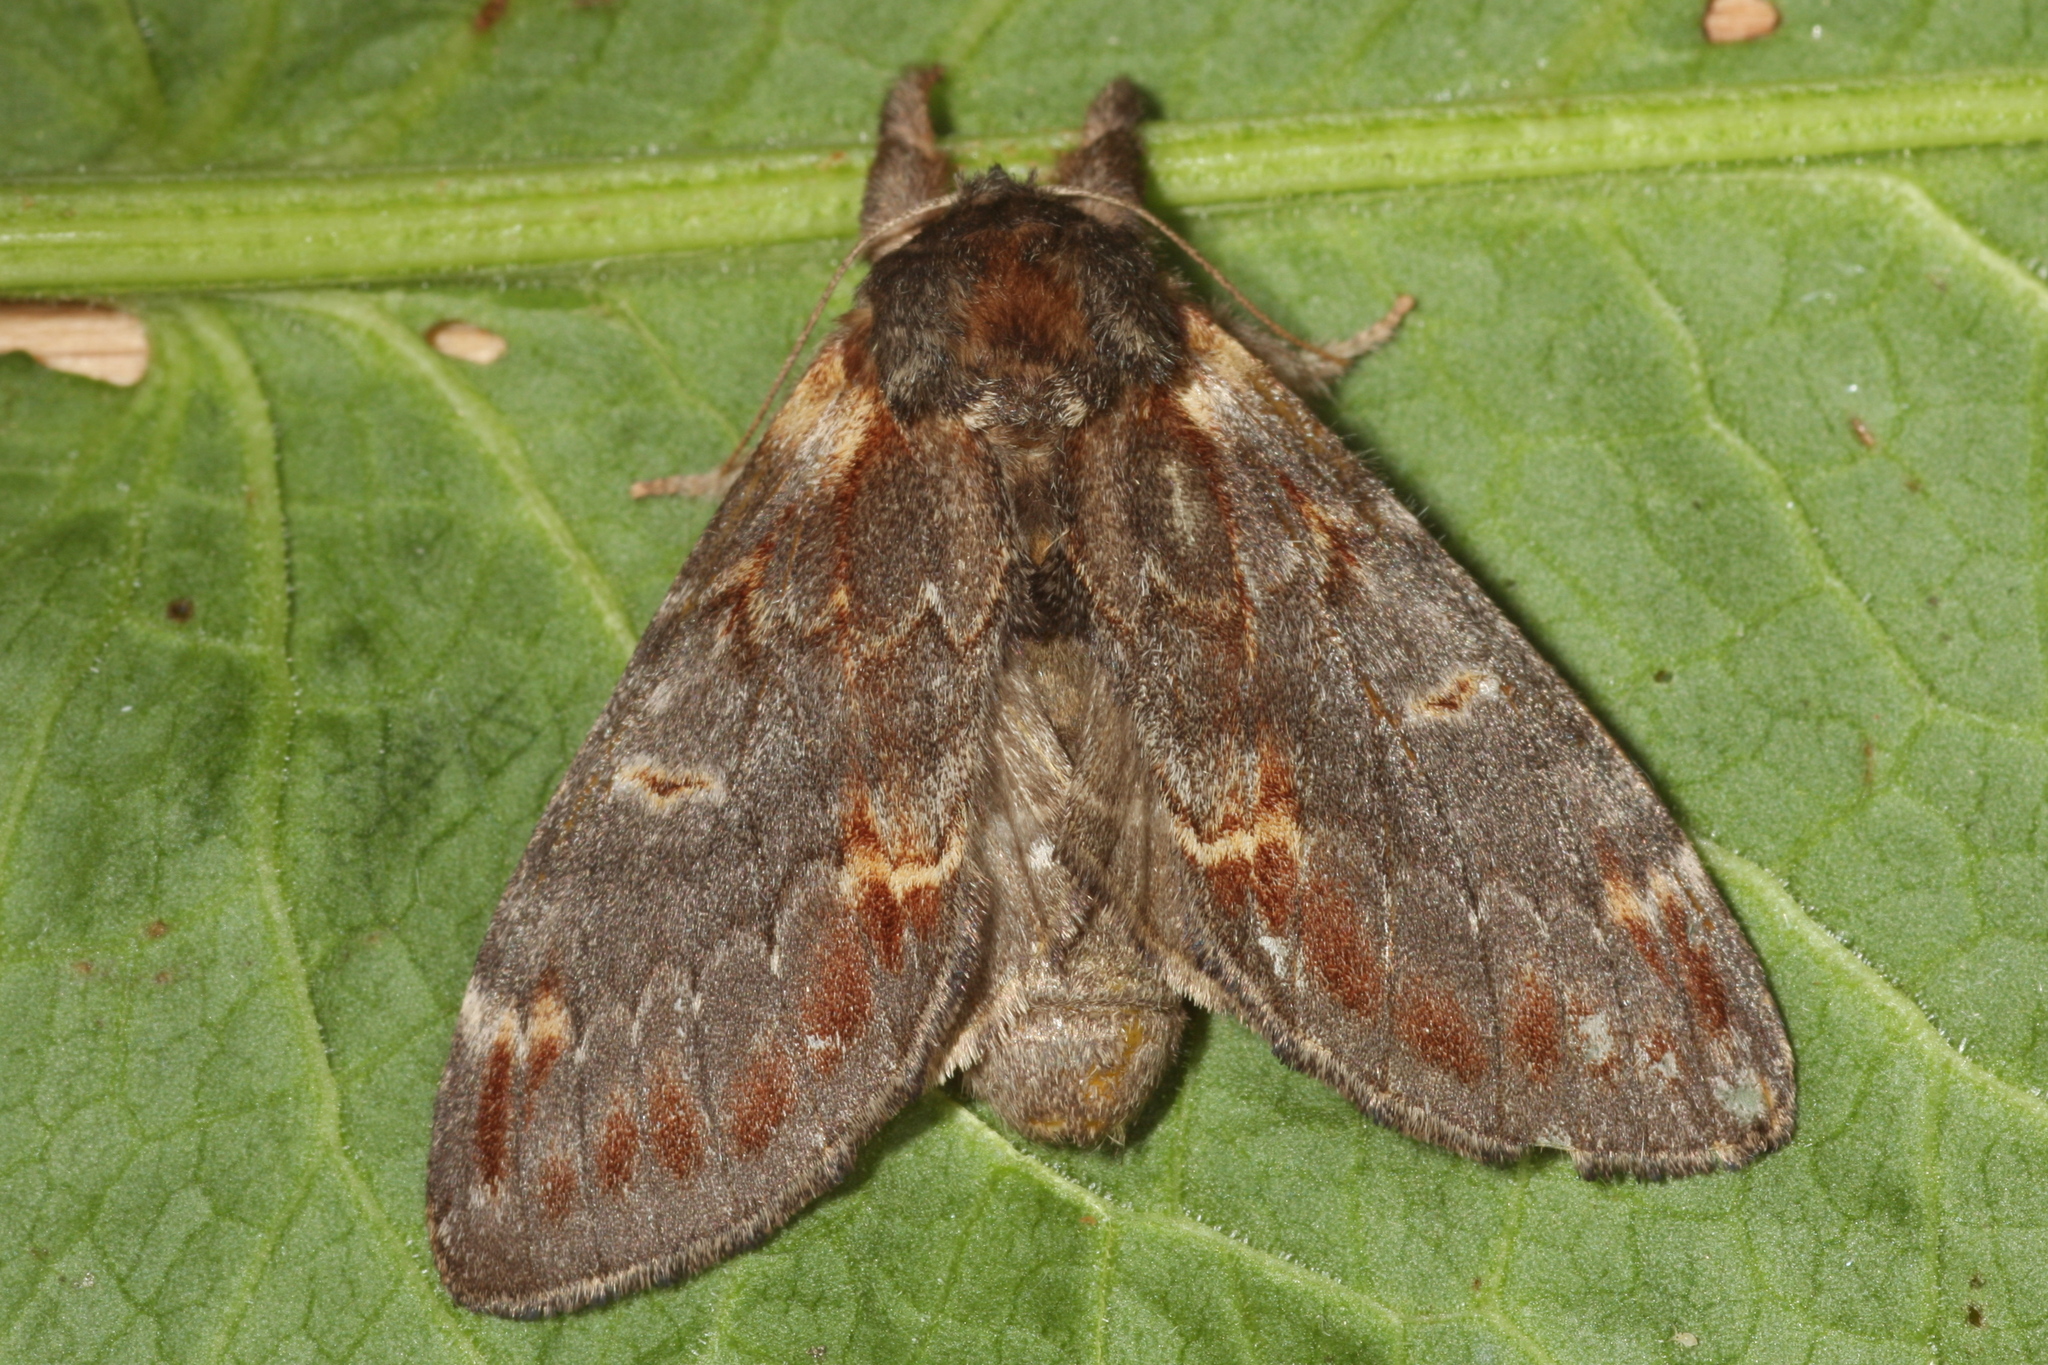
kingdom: Animalia
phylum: Arthropoda
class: Insecta
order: Lepidoptera
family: Notodontidae
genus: Notodonta
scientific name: Notodonta dromedarius
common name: Iron prominent
